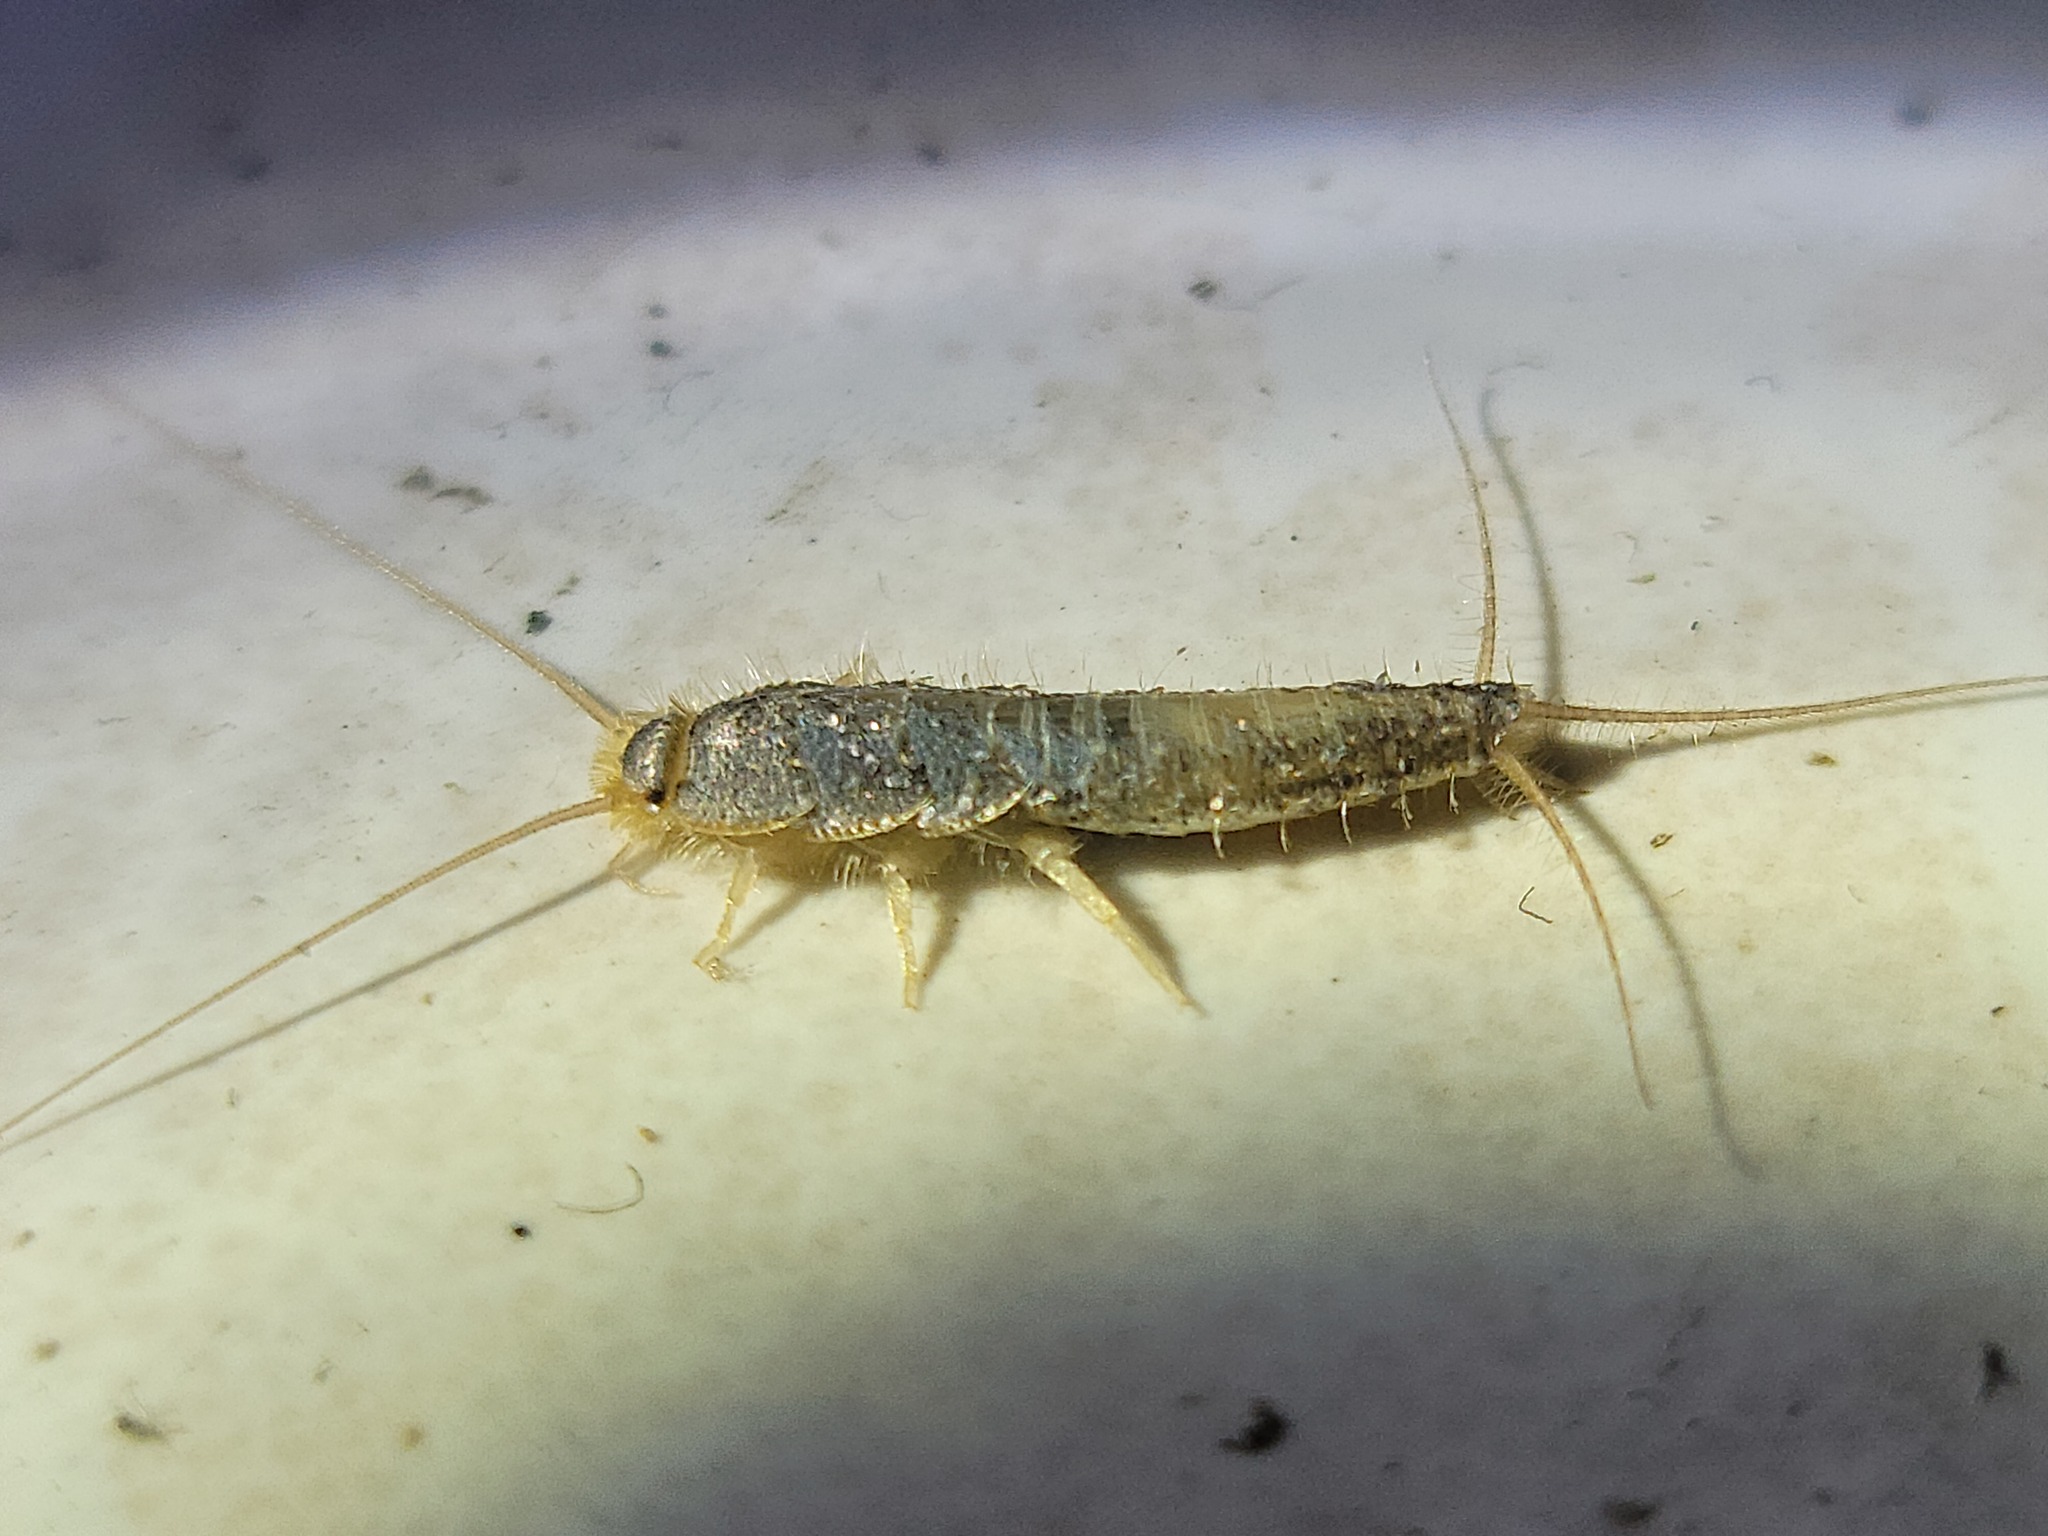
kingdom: Animalia
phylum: Arthropoda
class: Insecta
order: Zygentoma
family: Lepismatidae
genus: Ctenolepisma
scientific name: Ctenolepisma longicaudatum
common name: Silverfish
